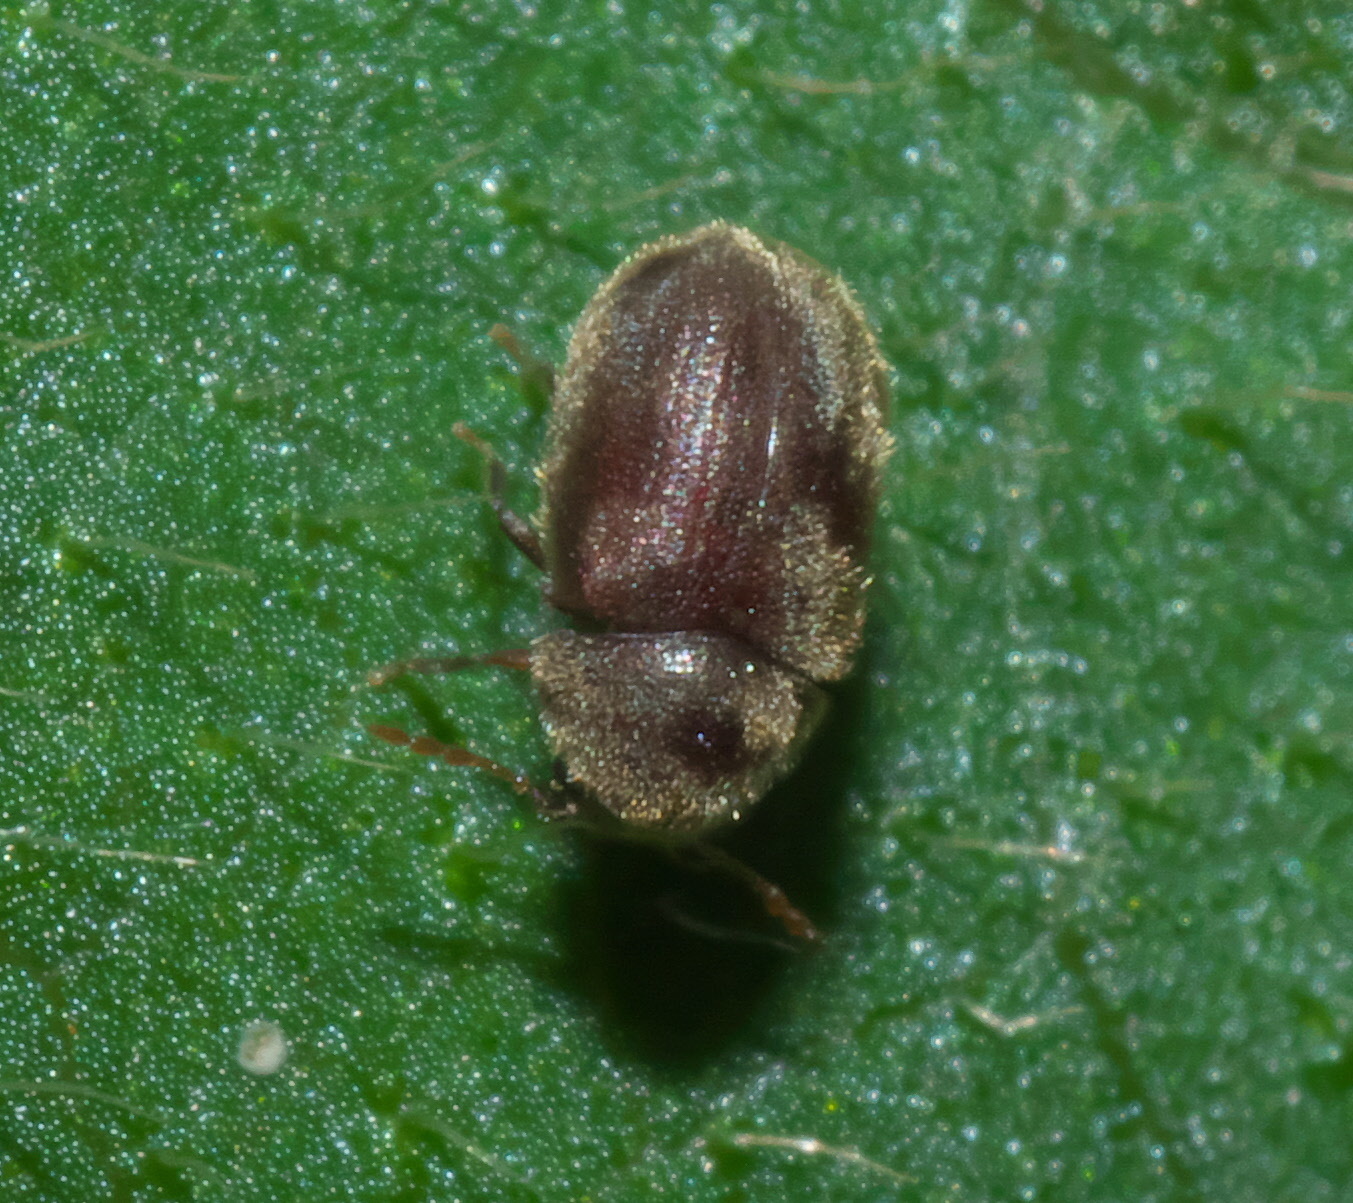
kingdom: Animalia
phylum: Arthropoda
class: Insecta
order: Coleoptera
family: Anobiidae
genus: Protheca
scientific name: Protheca hispida
